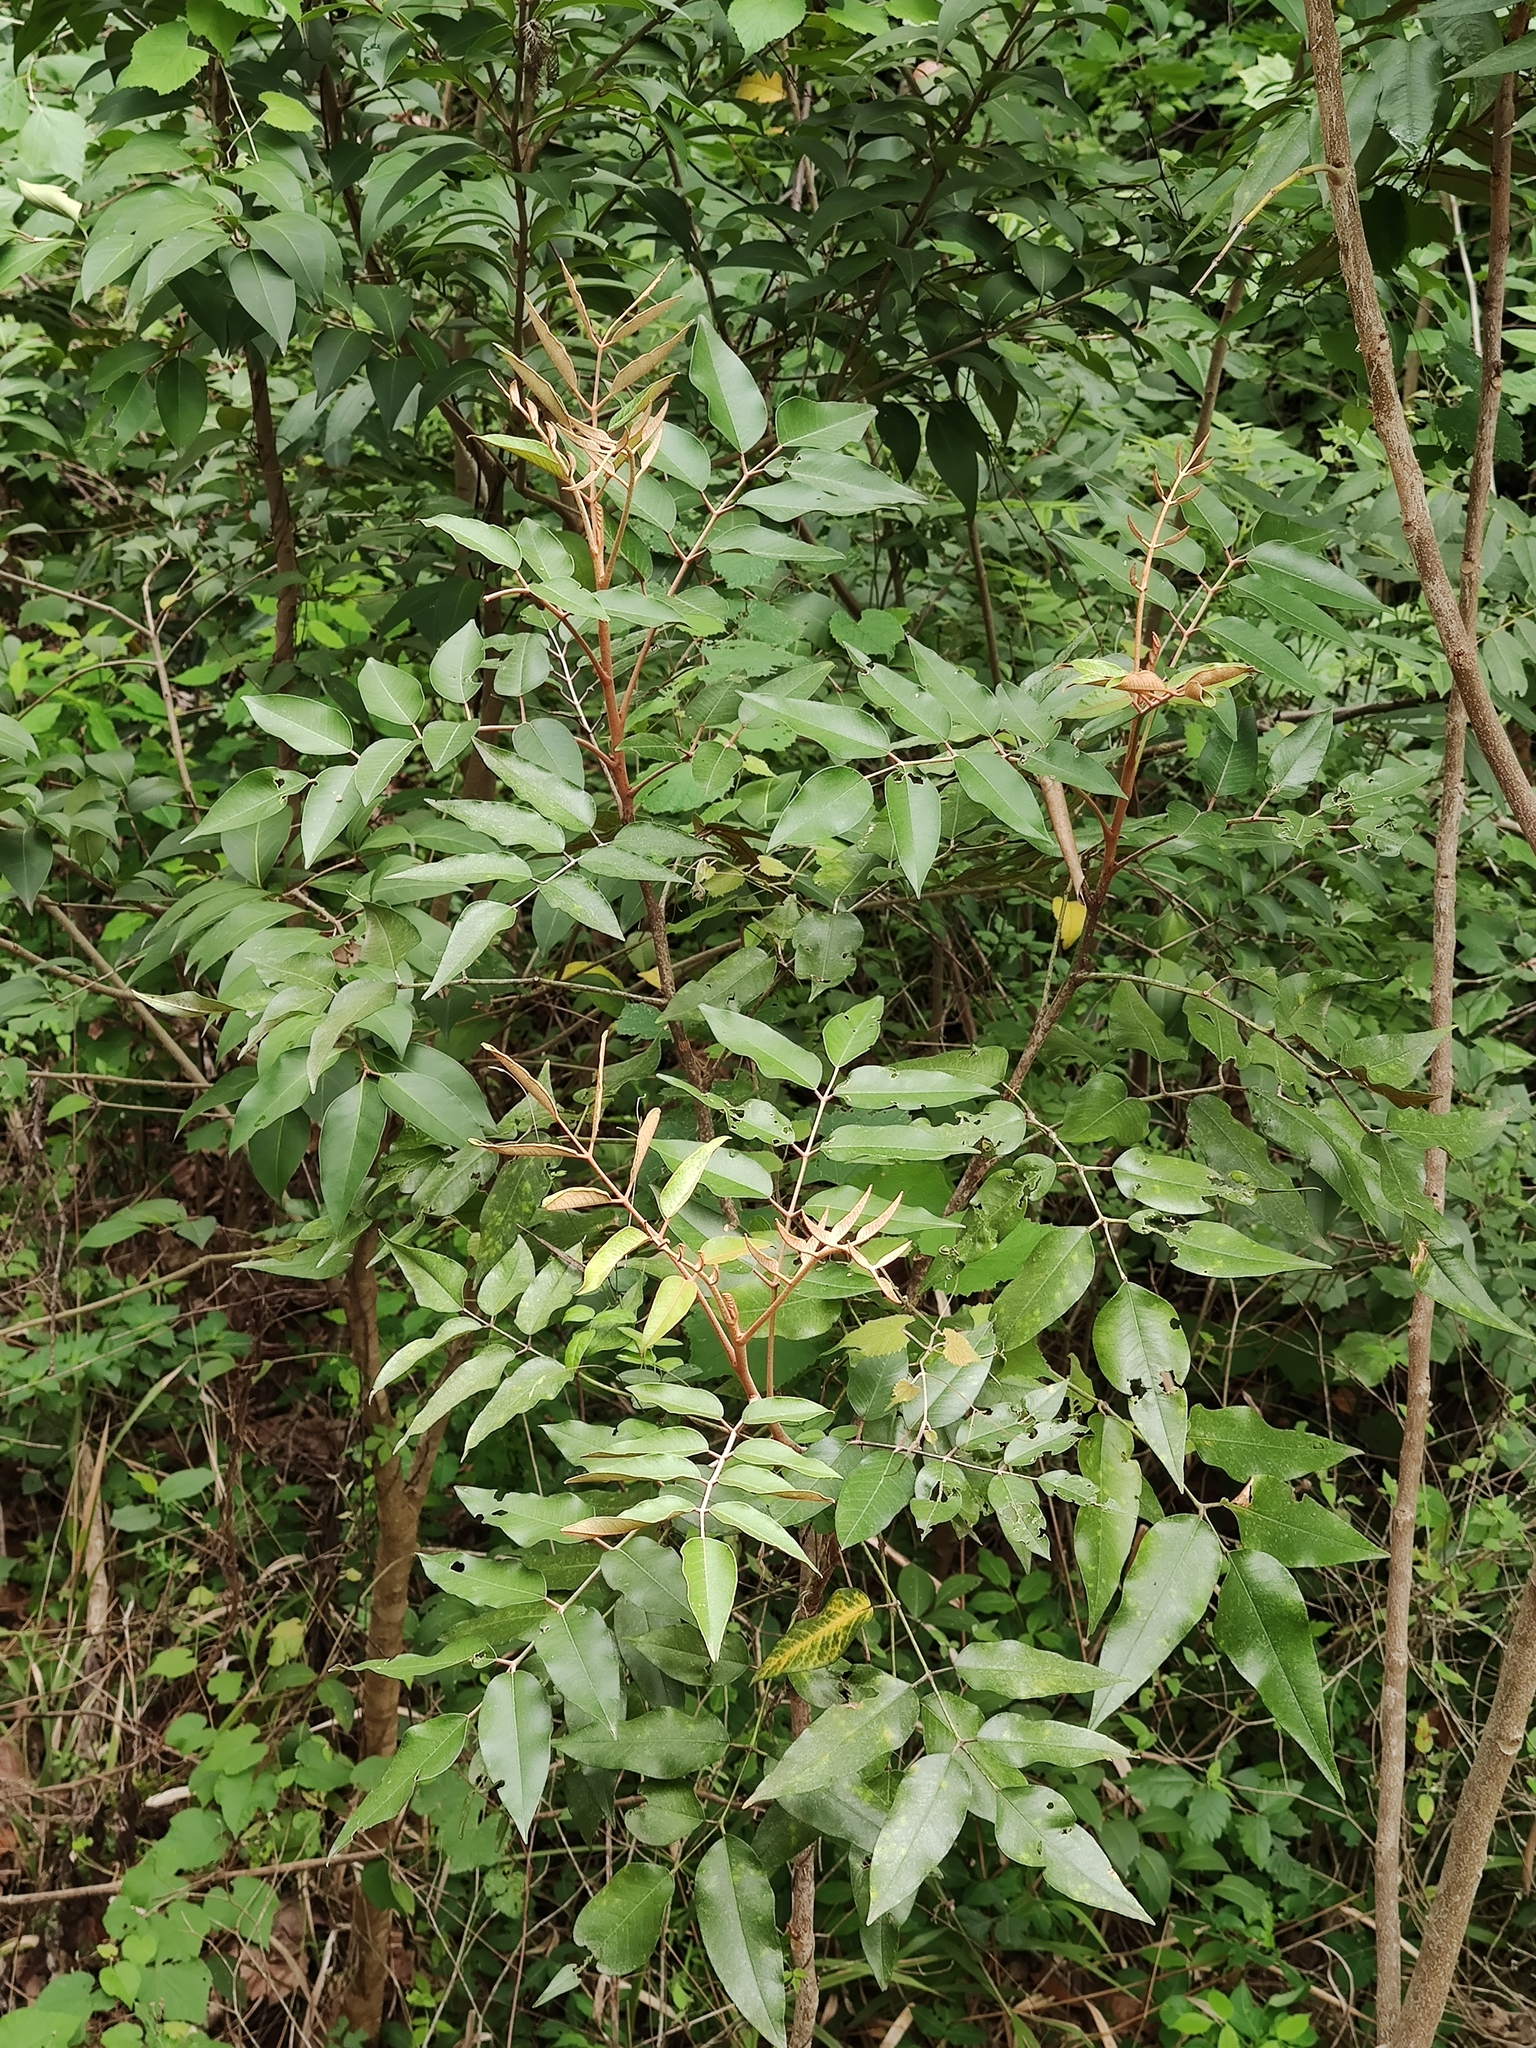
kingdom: Plantae
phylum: Tracheophyta
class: Magnoliopsida
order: Sapindales
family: Rutaceae
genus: Decatropis
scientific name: Decatropis bicolor
